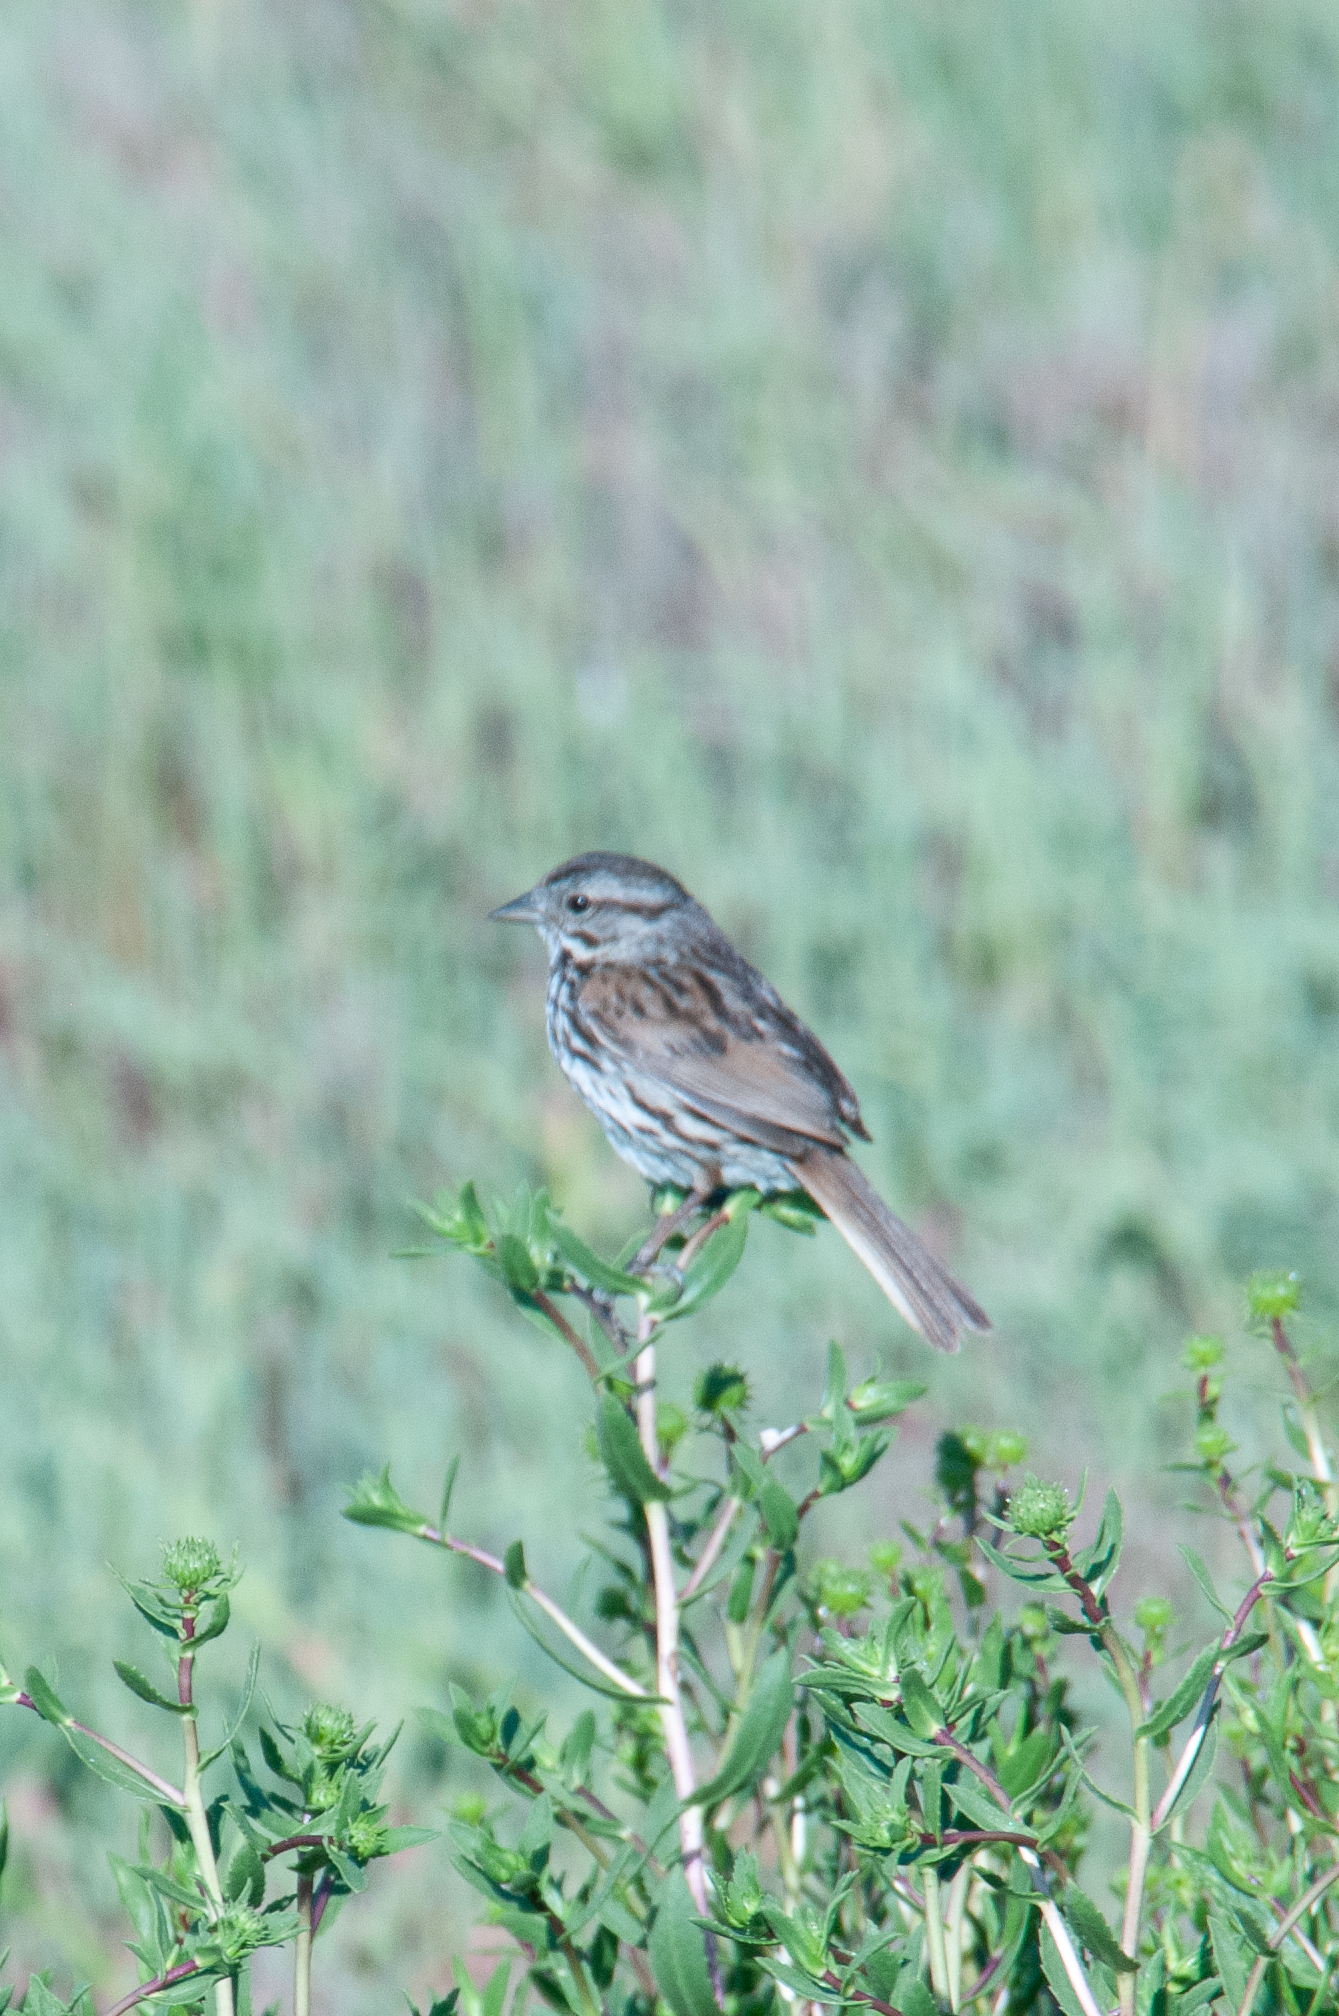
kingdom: Animalia
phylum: Chordata
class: Aves
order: Passeriformes
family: Passerellidae
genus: Melospiza
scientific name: Melospiza melodia
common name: Song sparrow
